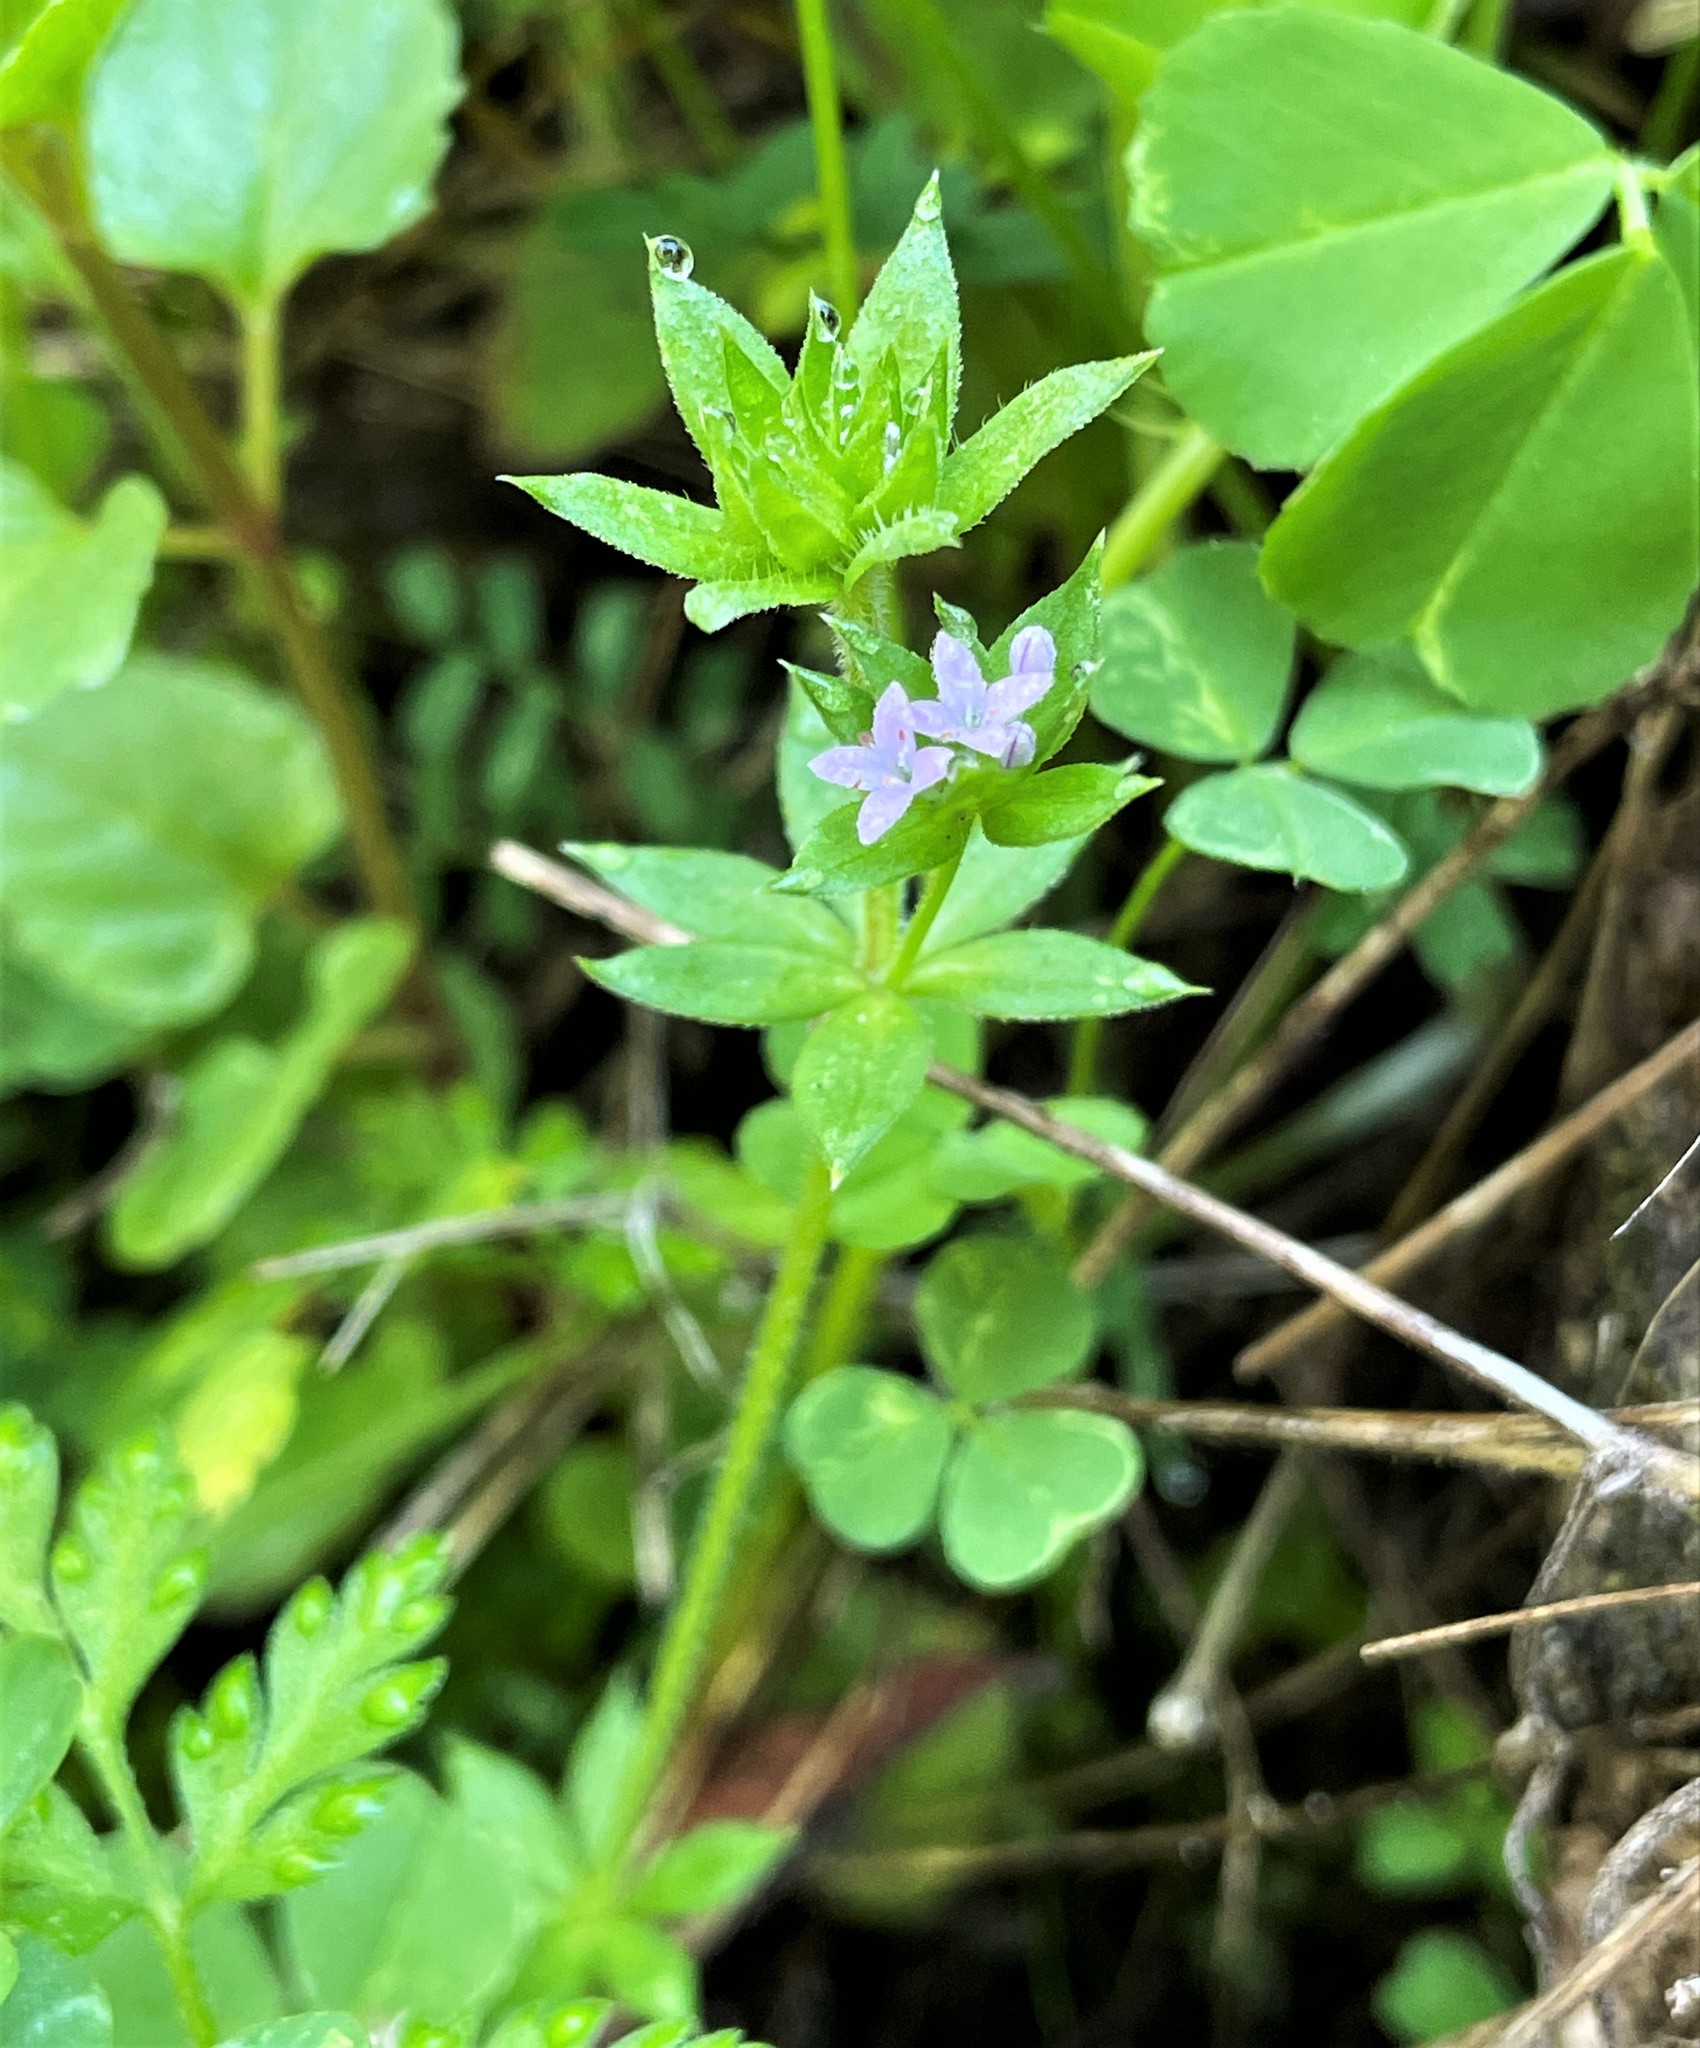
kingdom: Plantae
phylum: Tracheophyta
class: Magnoliopsida
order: Gentianales
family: Rubiaceae
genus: Sherardia
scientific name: Sherardia arvensis
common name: Field madder
